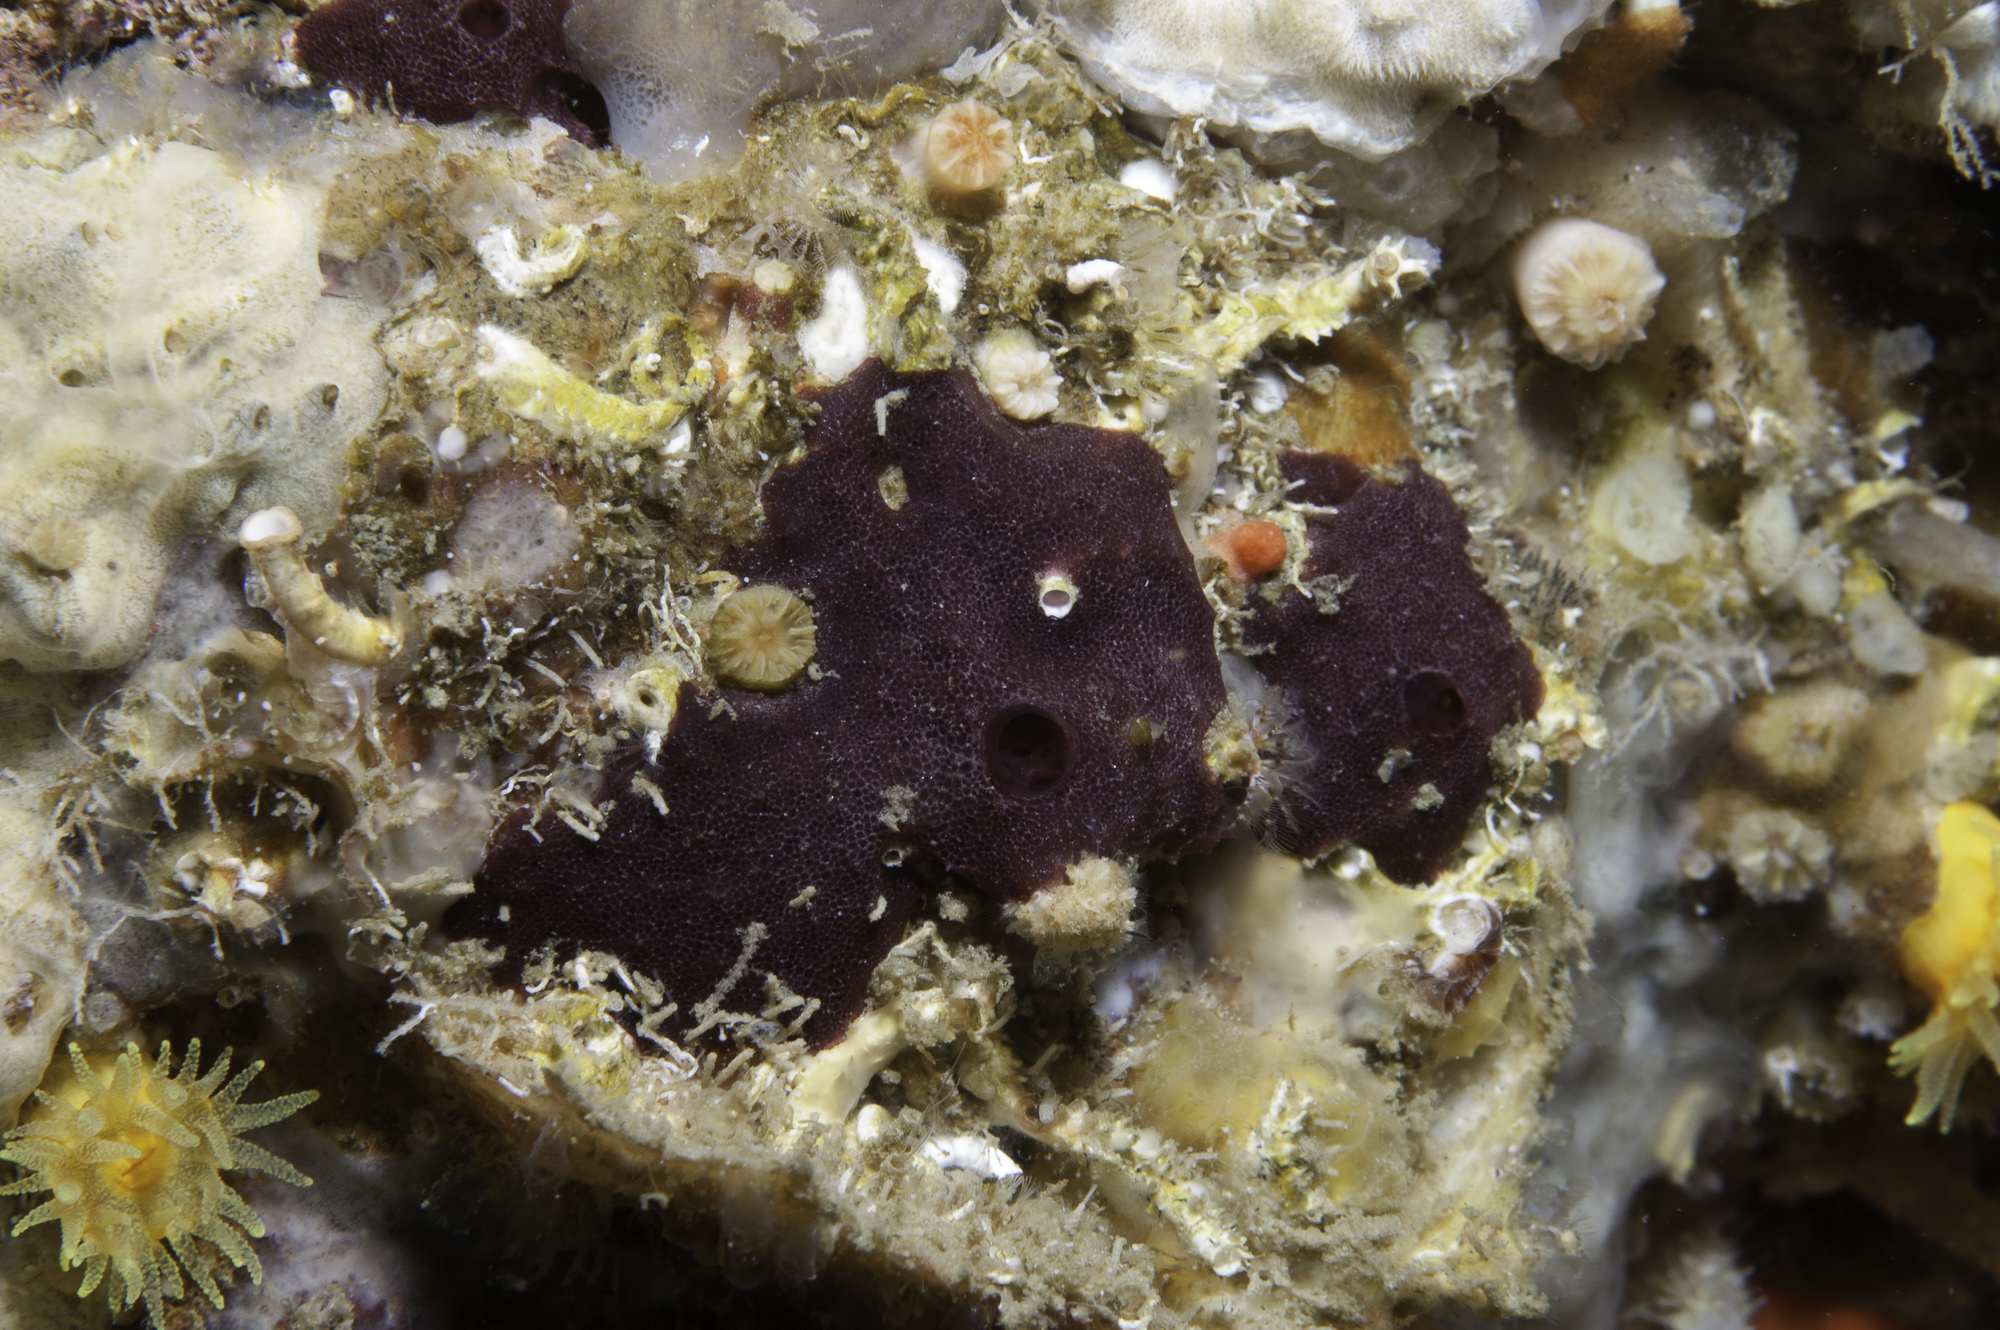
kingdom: Animalia
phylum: Porifera
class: Demospongiae
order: Dendroceratida
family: Darwinellidae
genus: Chelonaplysilla
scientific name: Chelonaplysilla noevus
